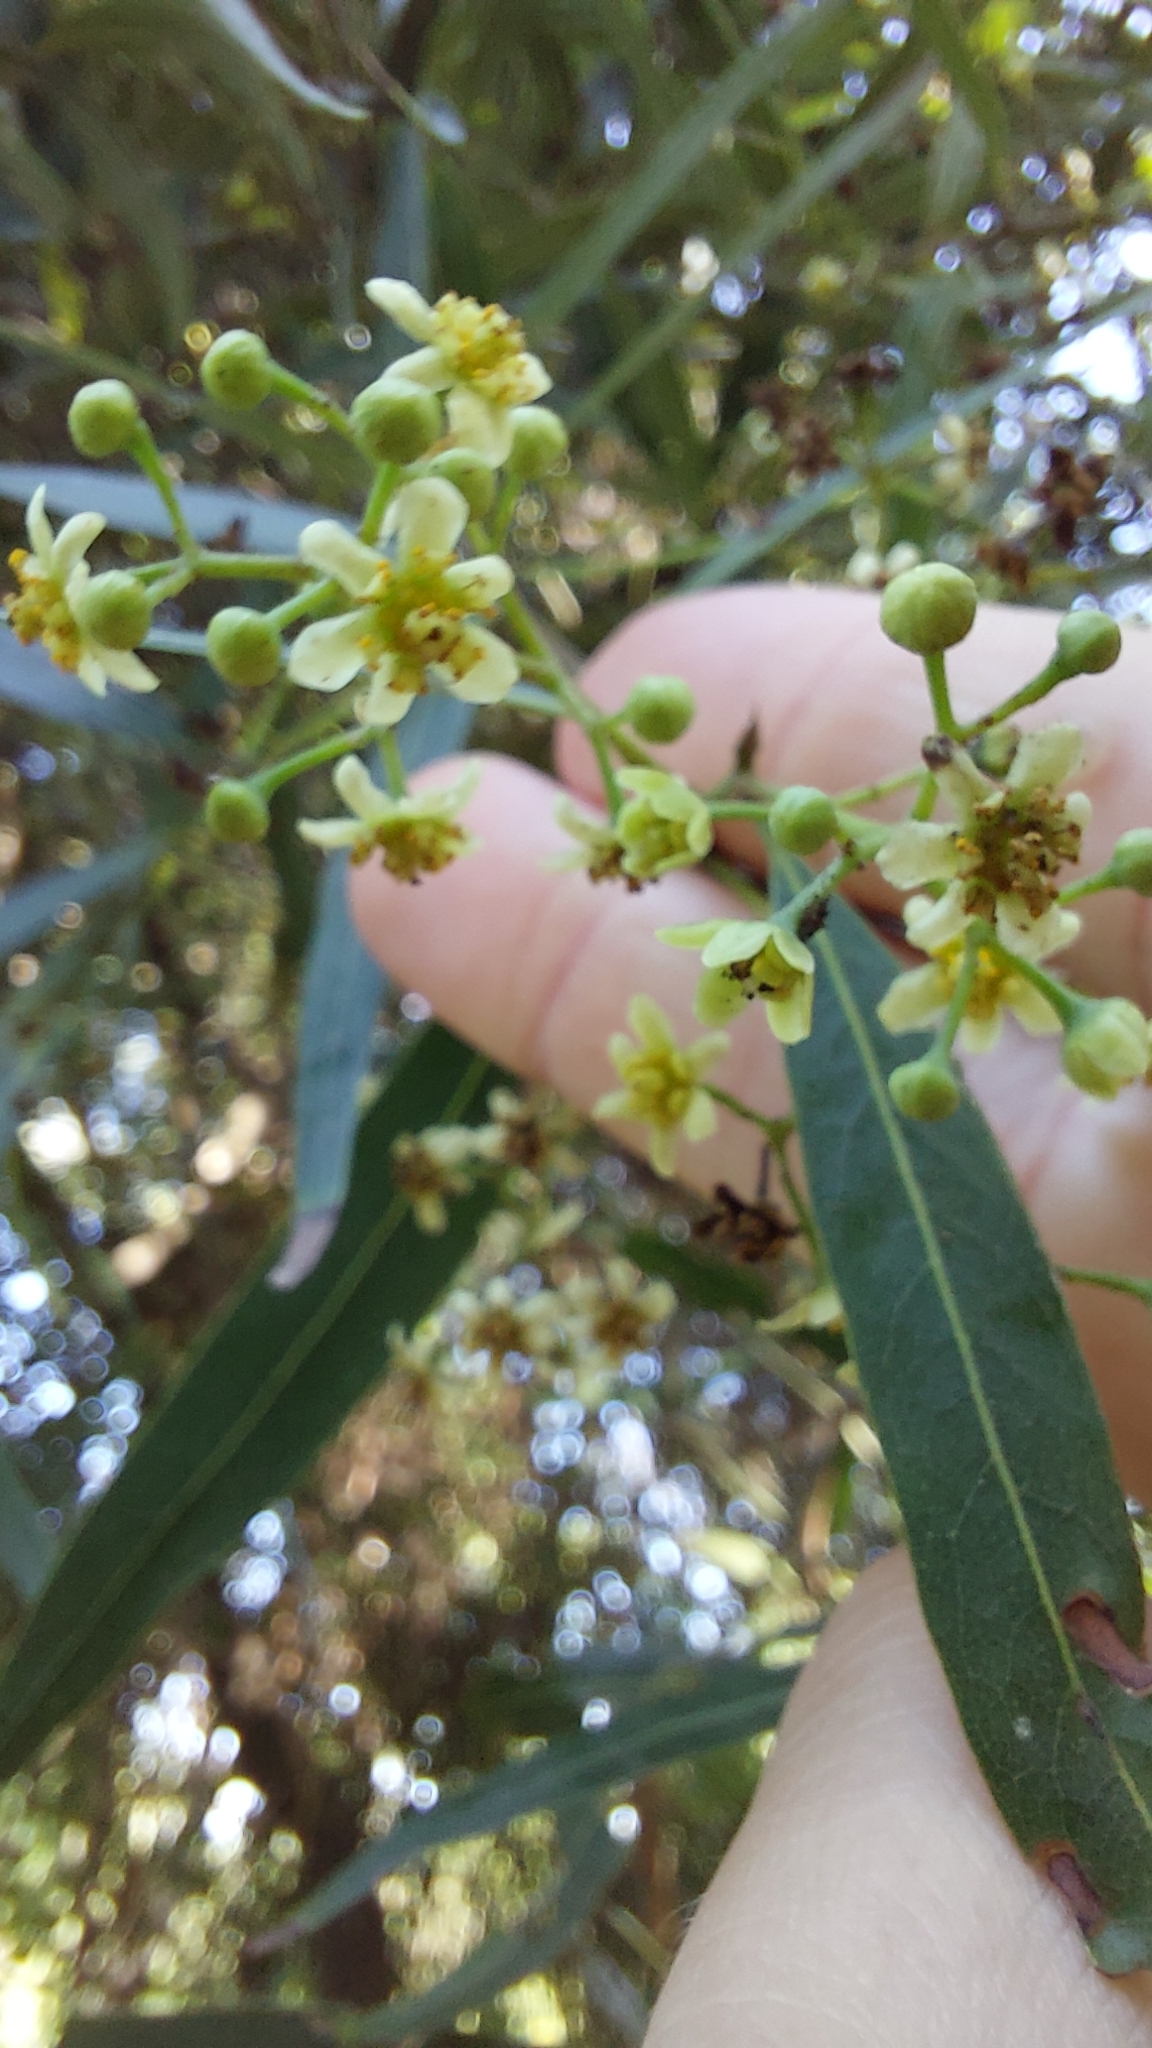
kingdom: Plantae
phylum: Tracheophyta
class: Magnoliopsida
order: Laurales
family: Lauraceae
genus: Nectandra
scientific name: Nectandra angustifolia
